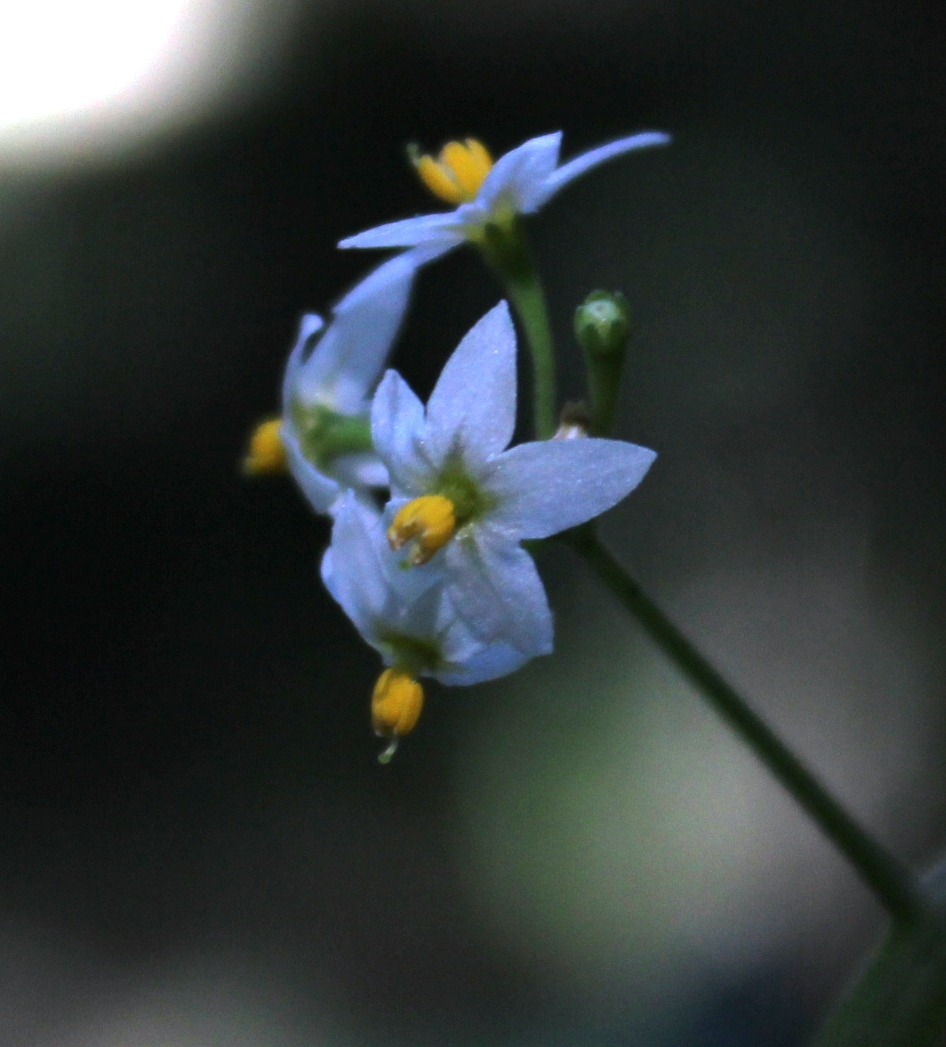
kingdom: Plantae
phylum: Tracheophyta
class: Magnoliopsida
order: Solanales
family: Solanaceae
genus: Solanum
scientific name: Solanum nigrum
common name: Black nightshade
